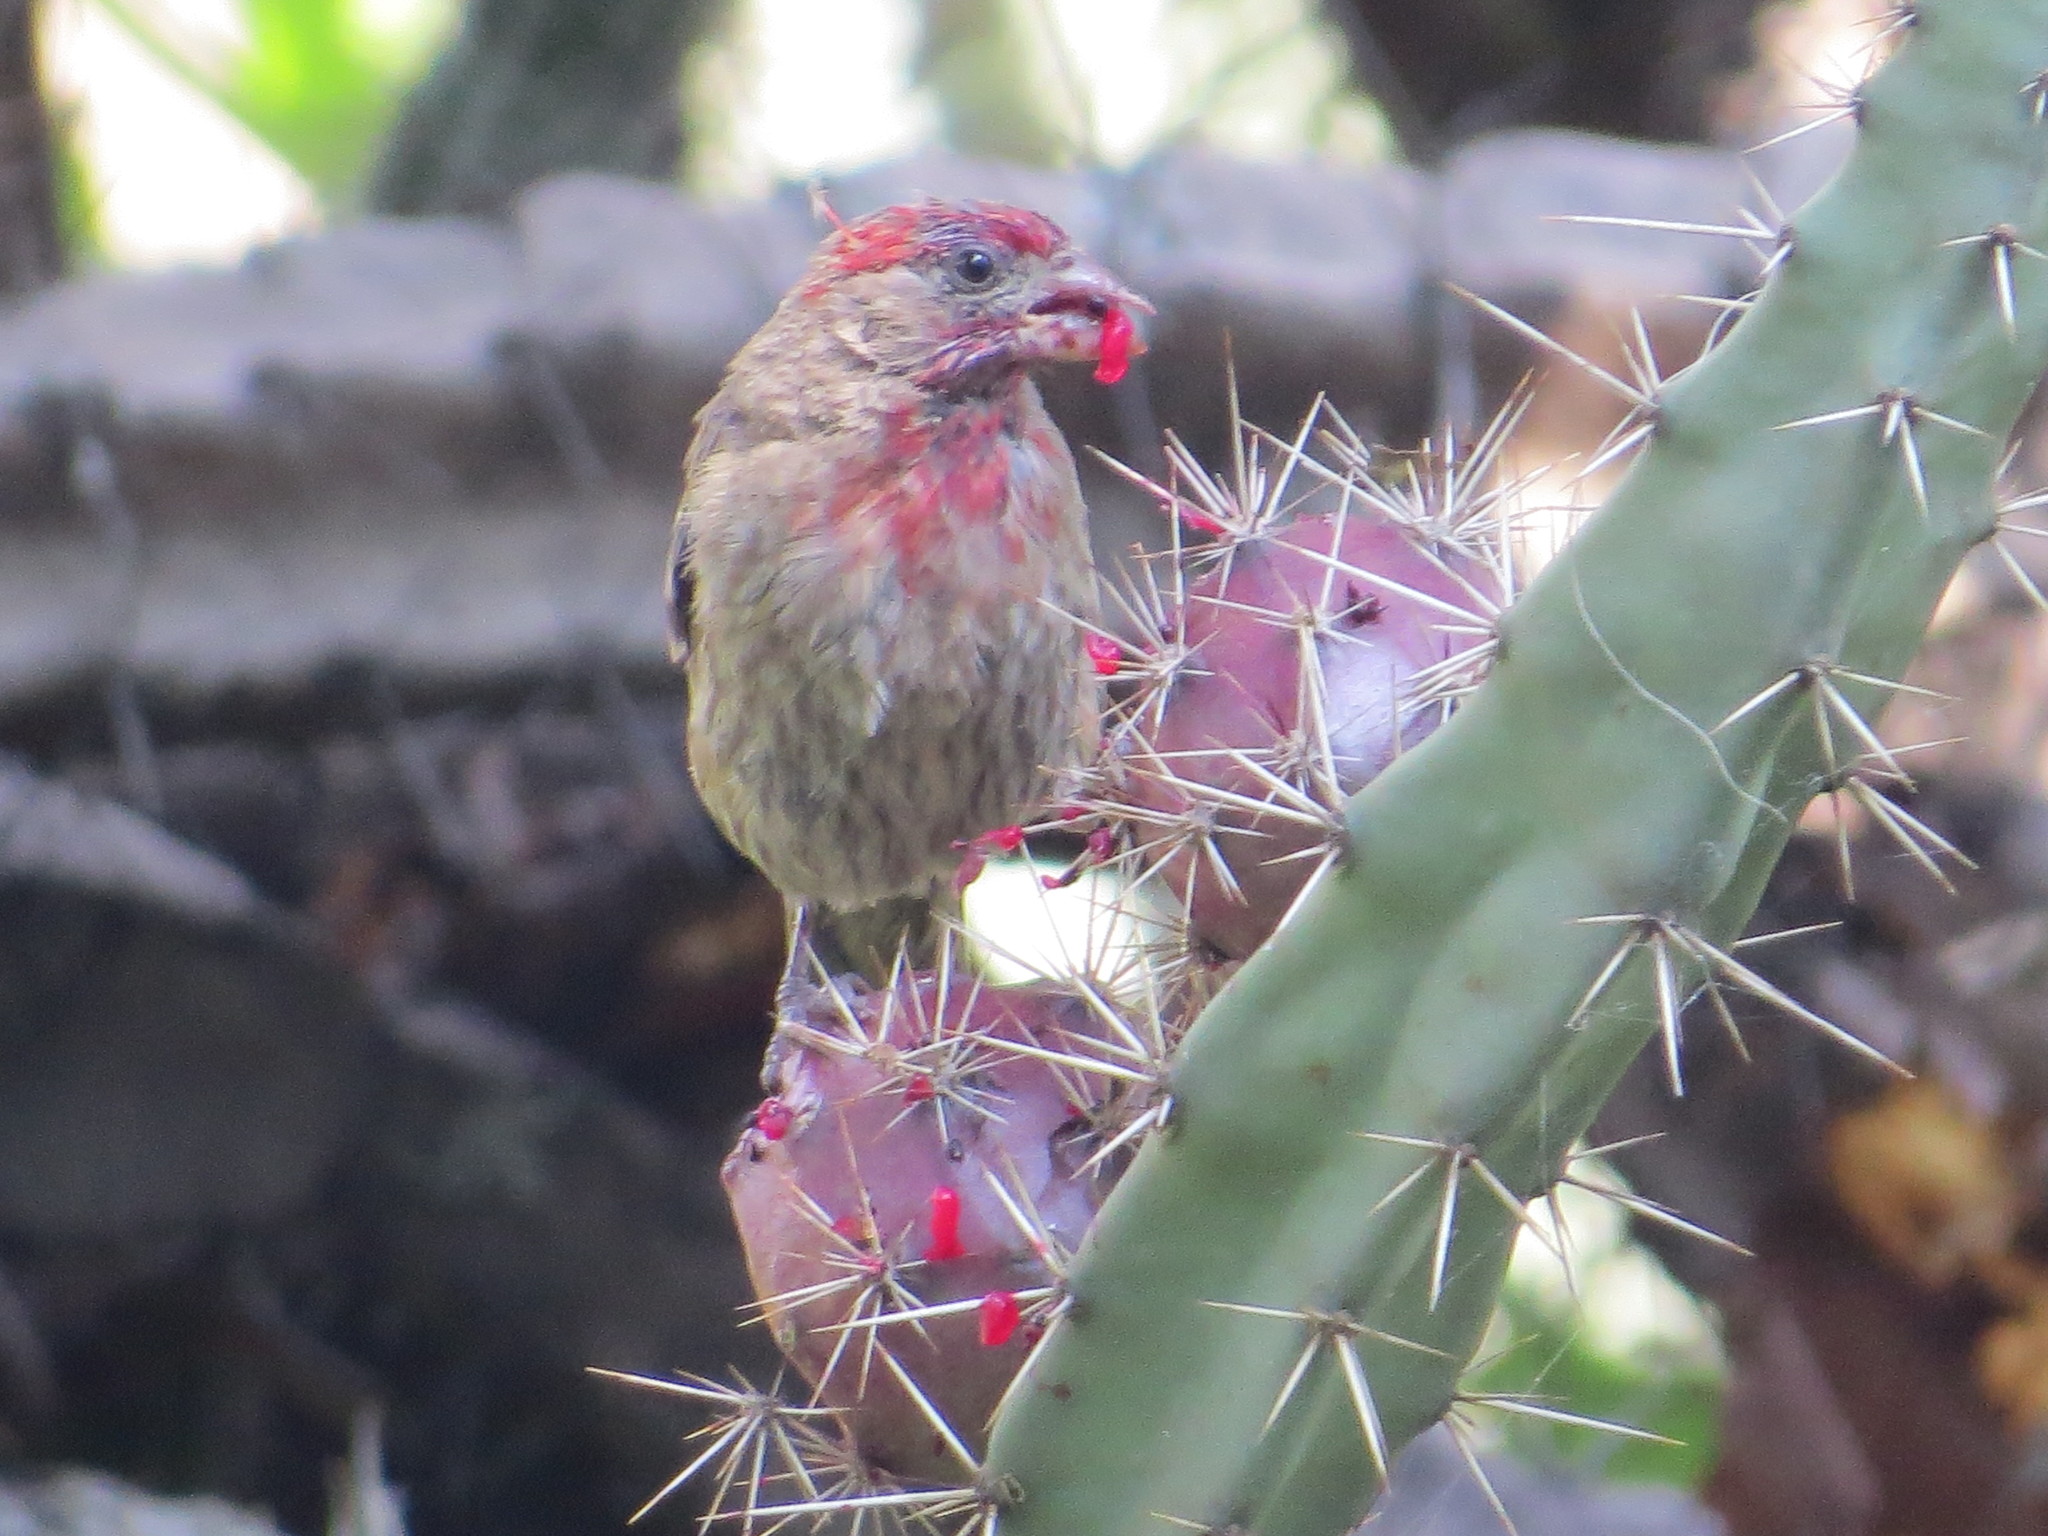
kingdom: Animalia
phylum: Chordata
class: Aves
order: Passeriformes
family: Fringillidae
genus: Haemorhous
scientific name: Haemorhous mexicanus
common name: House finch
